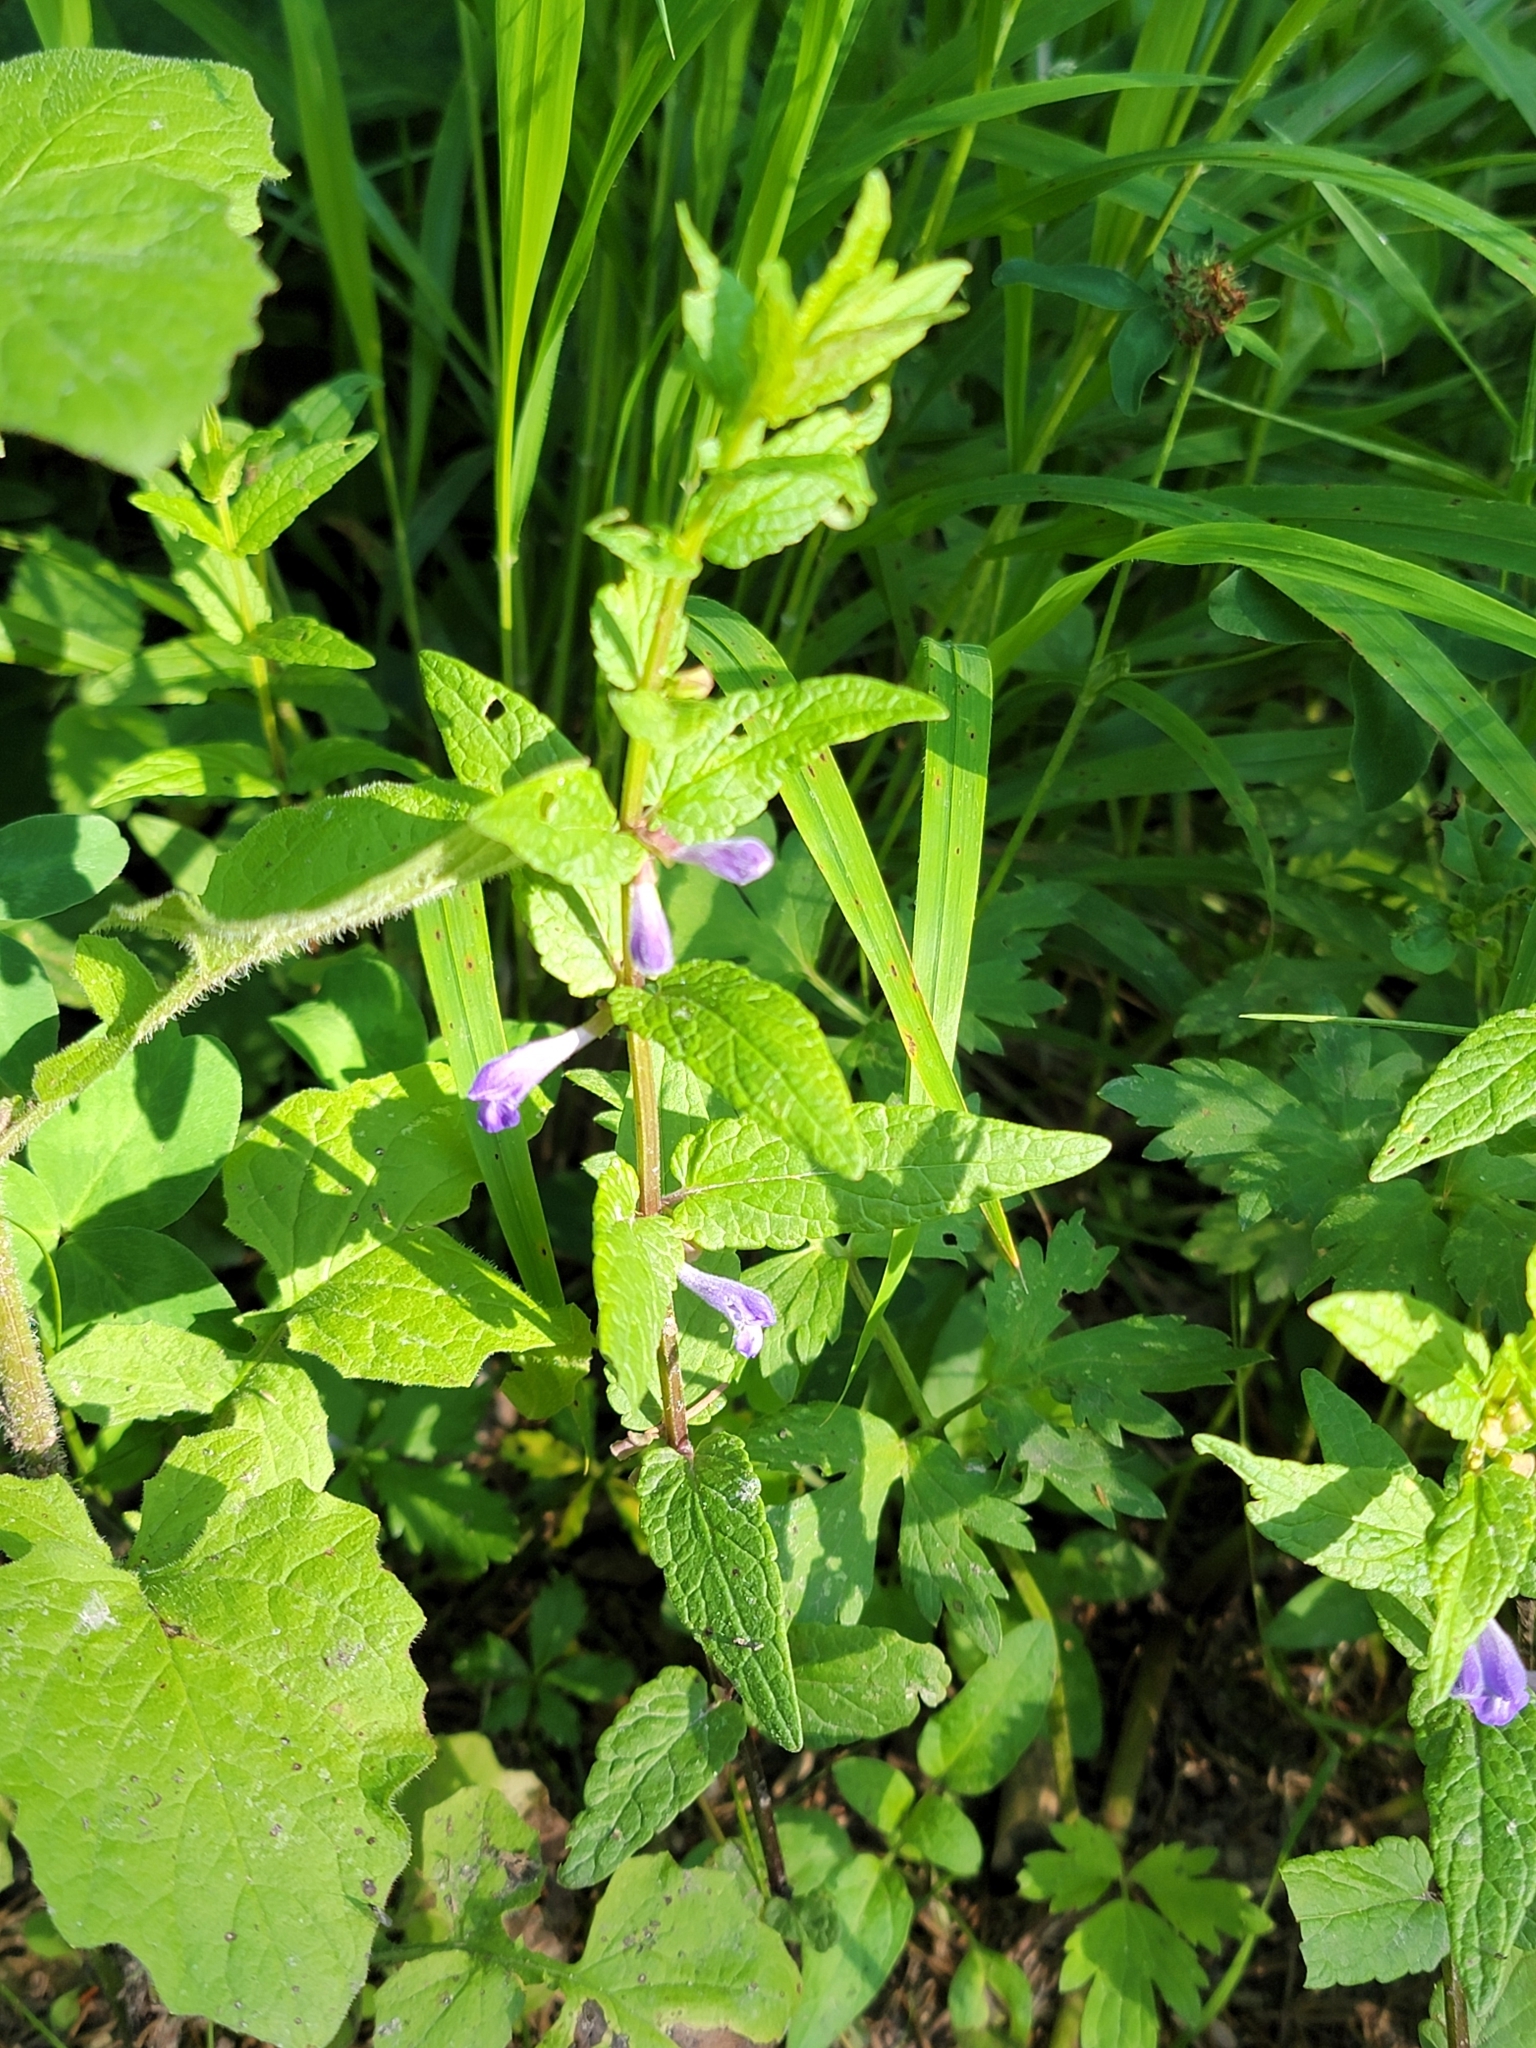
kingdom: Plantae
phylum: Tracheophyta
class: Magnoliopsida
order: Lamiales
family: Lamiaceae
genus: Scutellaria
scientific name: Scutellaria galericulata
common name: Skullcap
